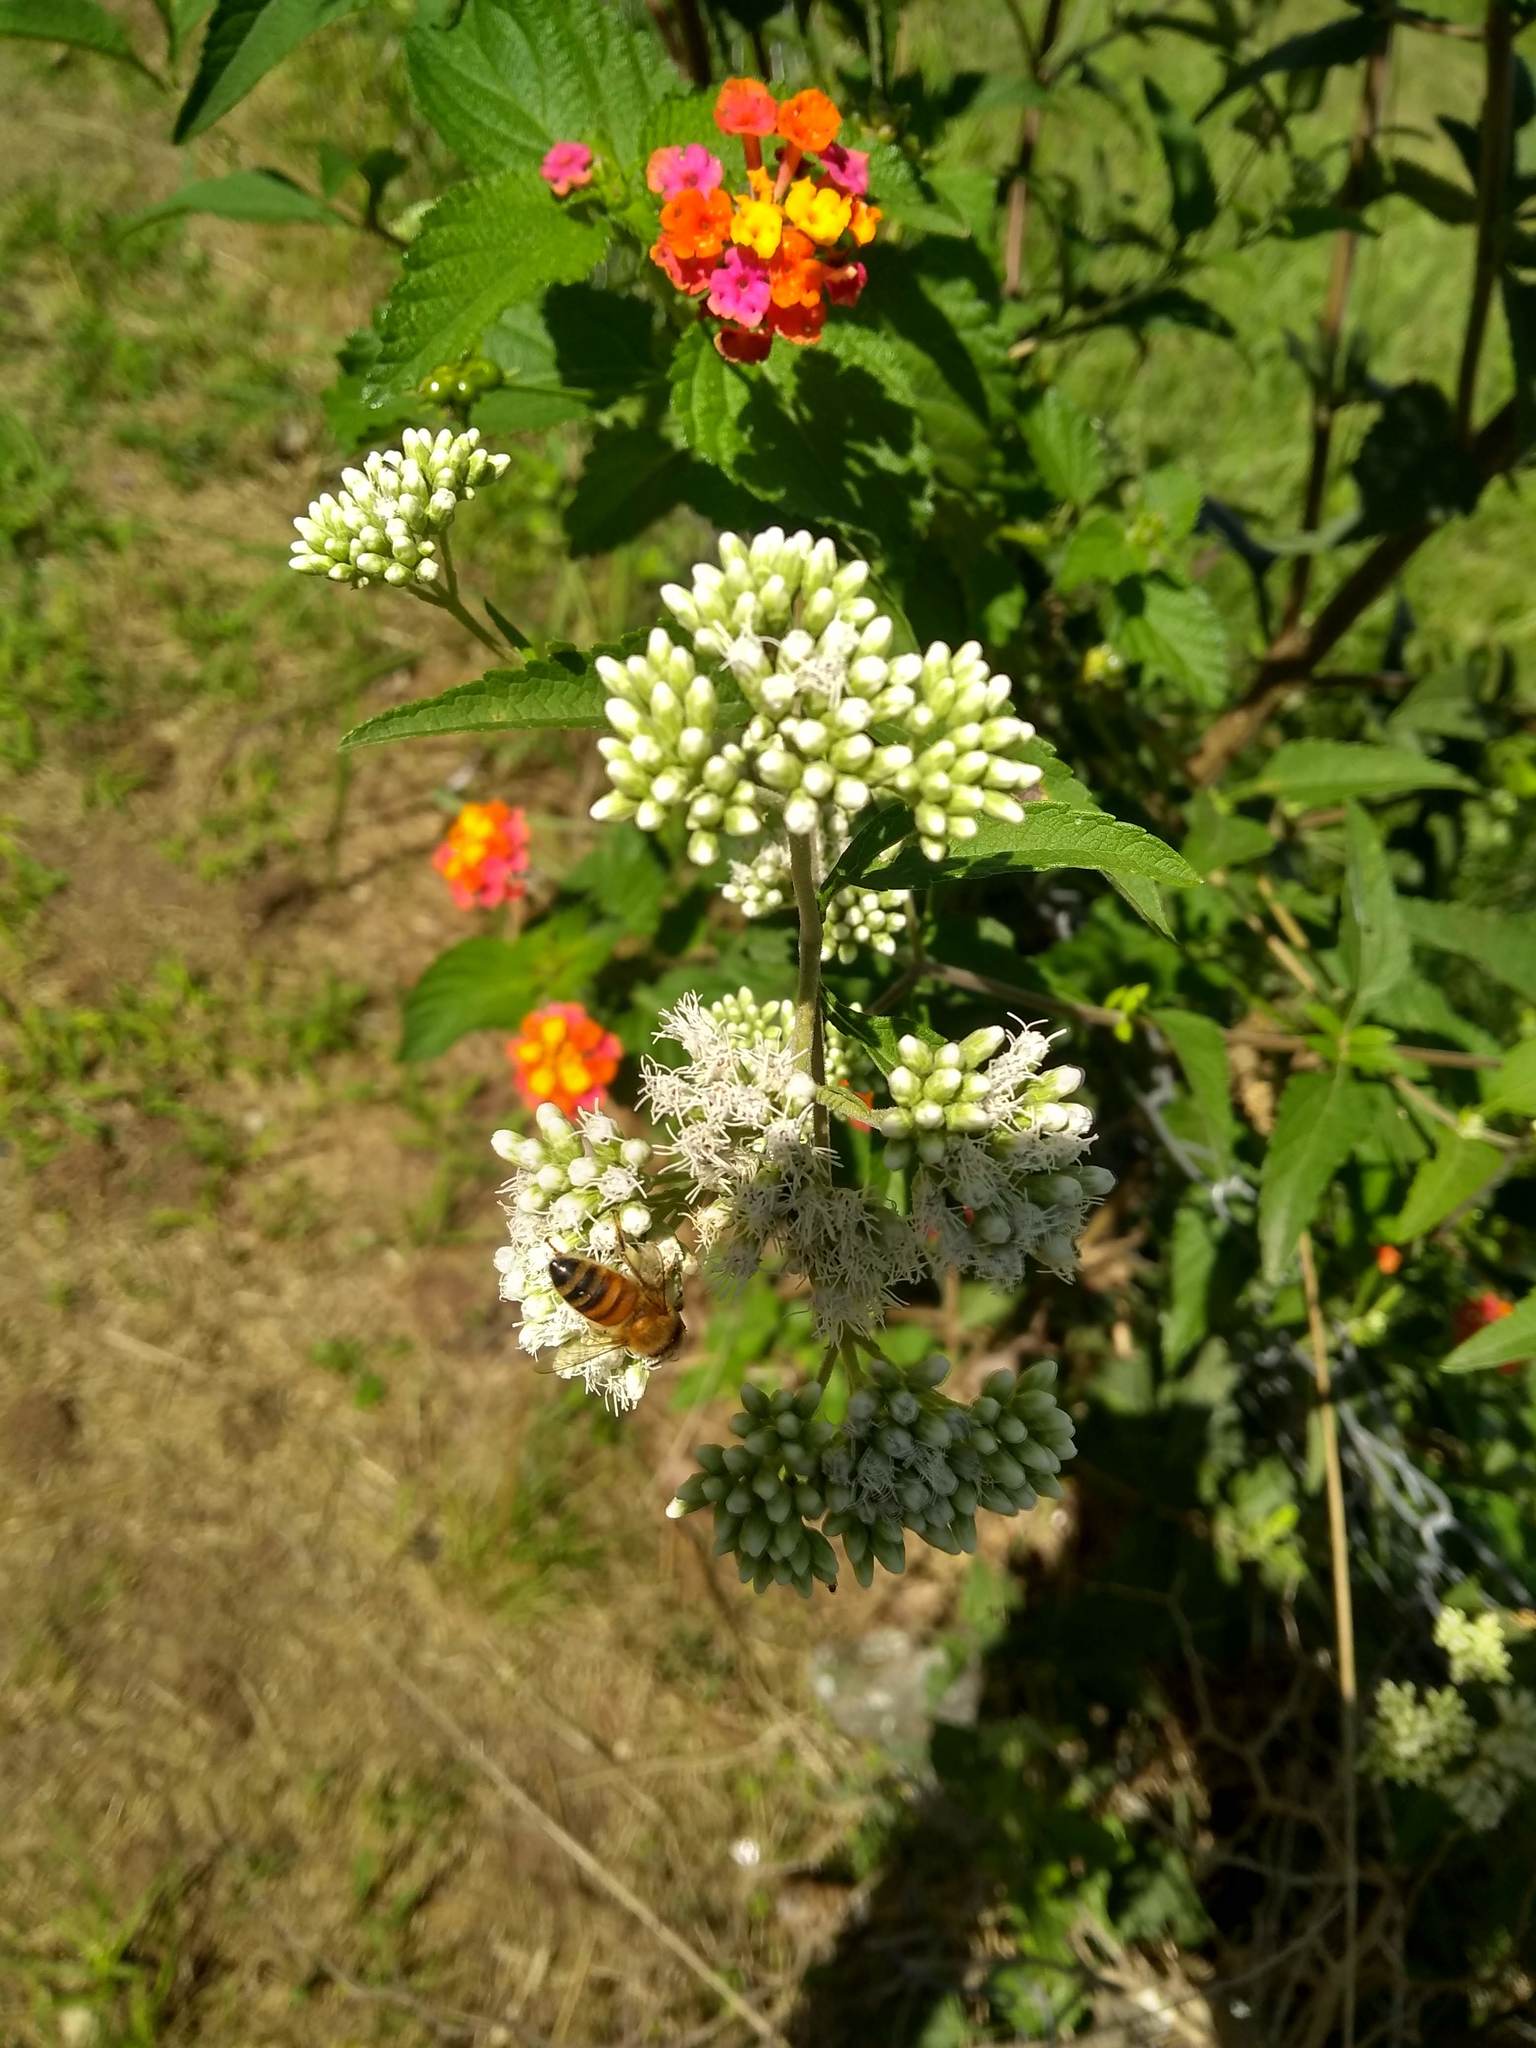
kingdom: Animalia
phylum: Arthropoda
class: Insecta
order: Hymenoptera
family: Apidae
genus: Apis
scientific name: Apis mellifera
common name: Honey bee
